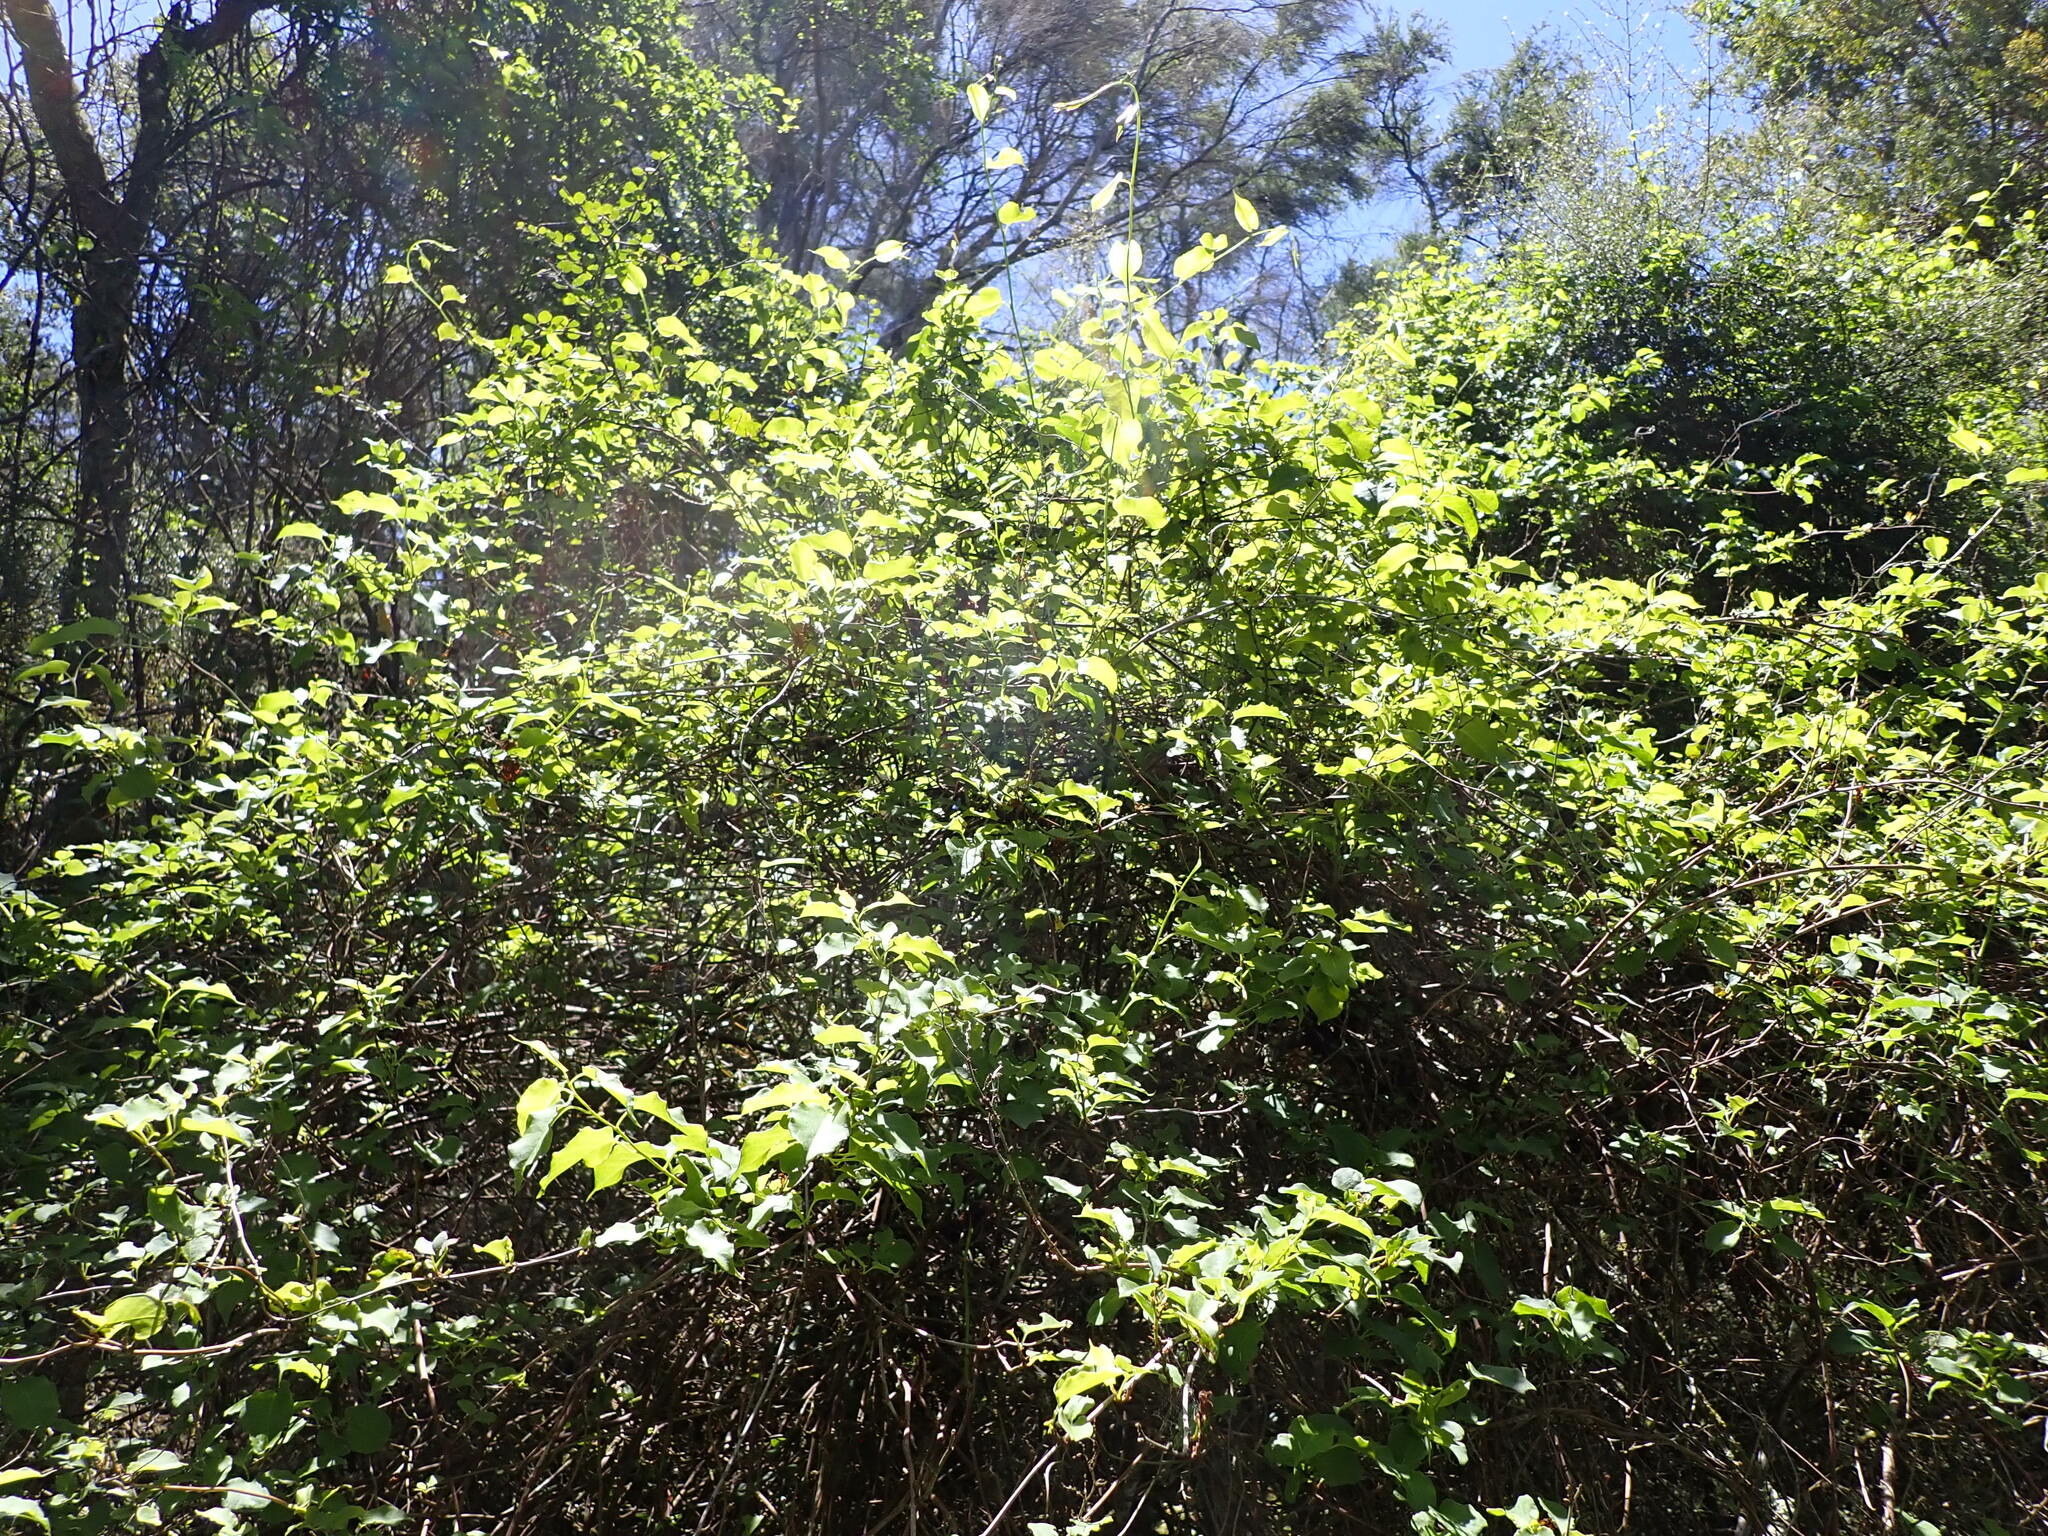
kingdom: Plantae
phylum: Tracheophyta
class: Magnoliopsida
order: Caryophyllales
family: Polygonaceae
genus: Muehlenbeckia
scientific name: Muehlenbeckia australis
